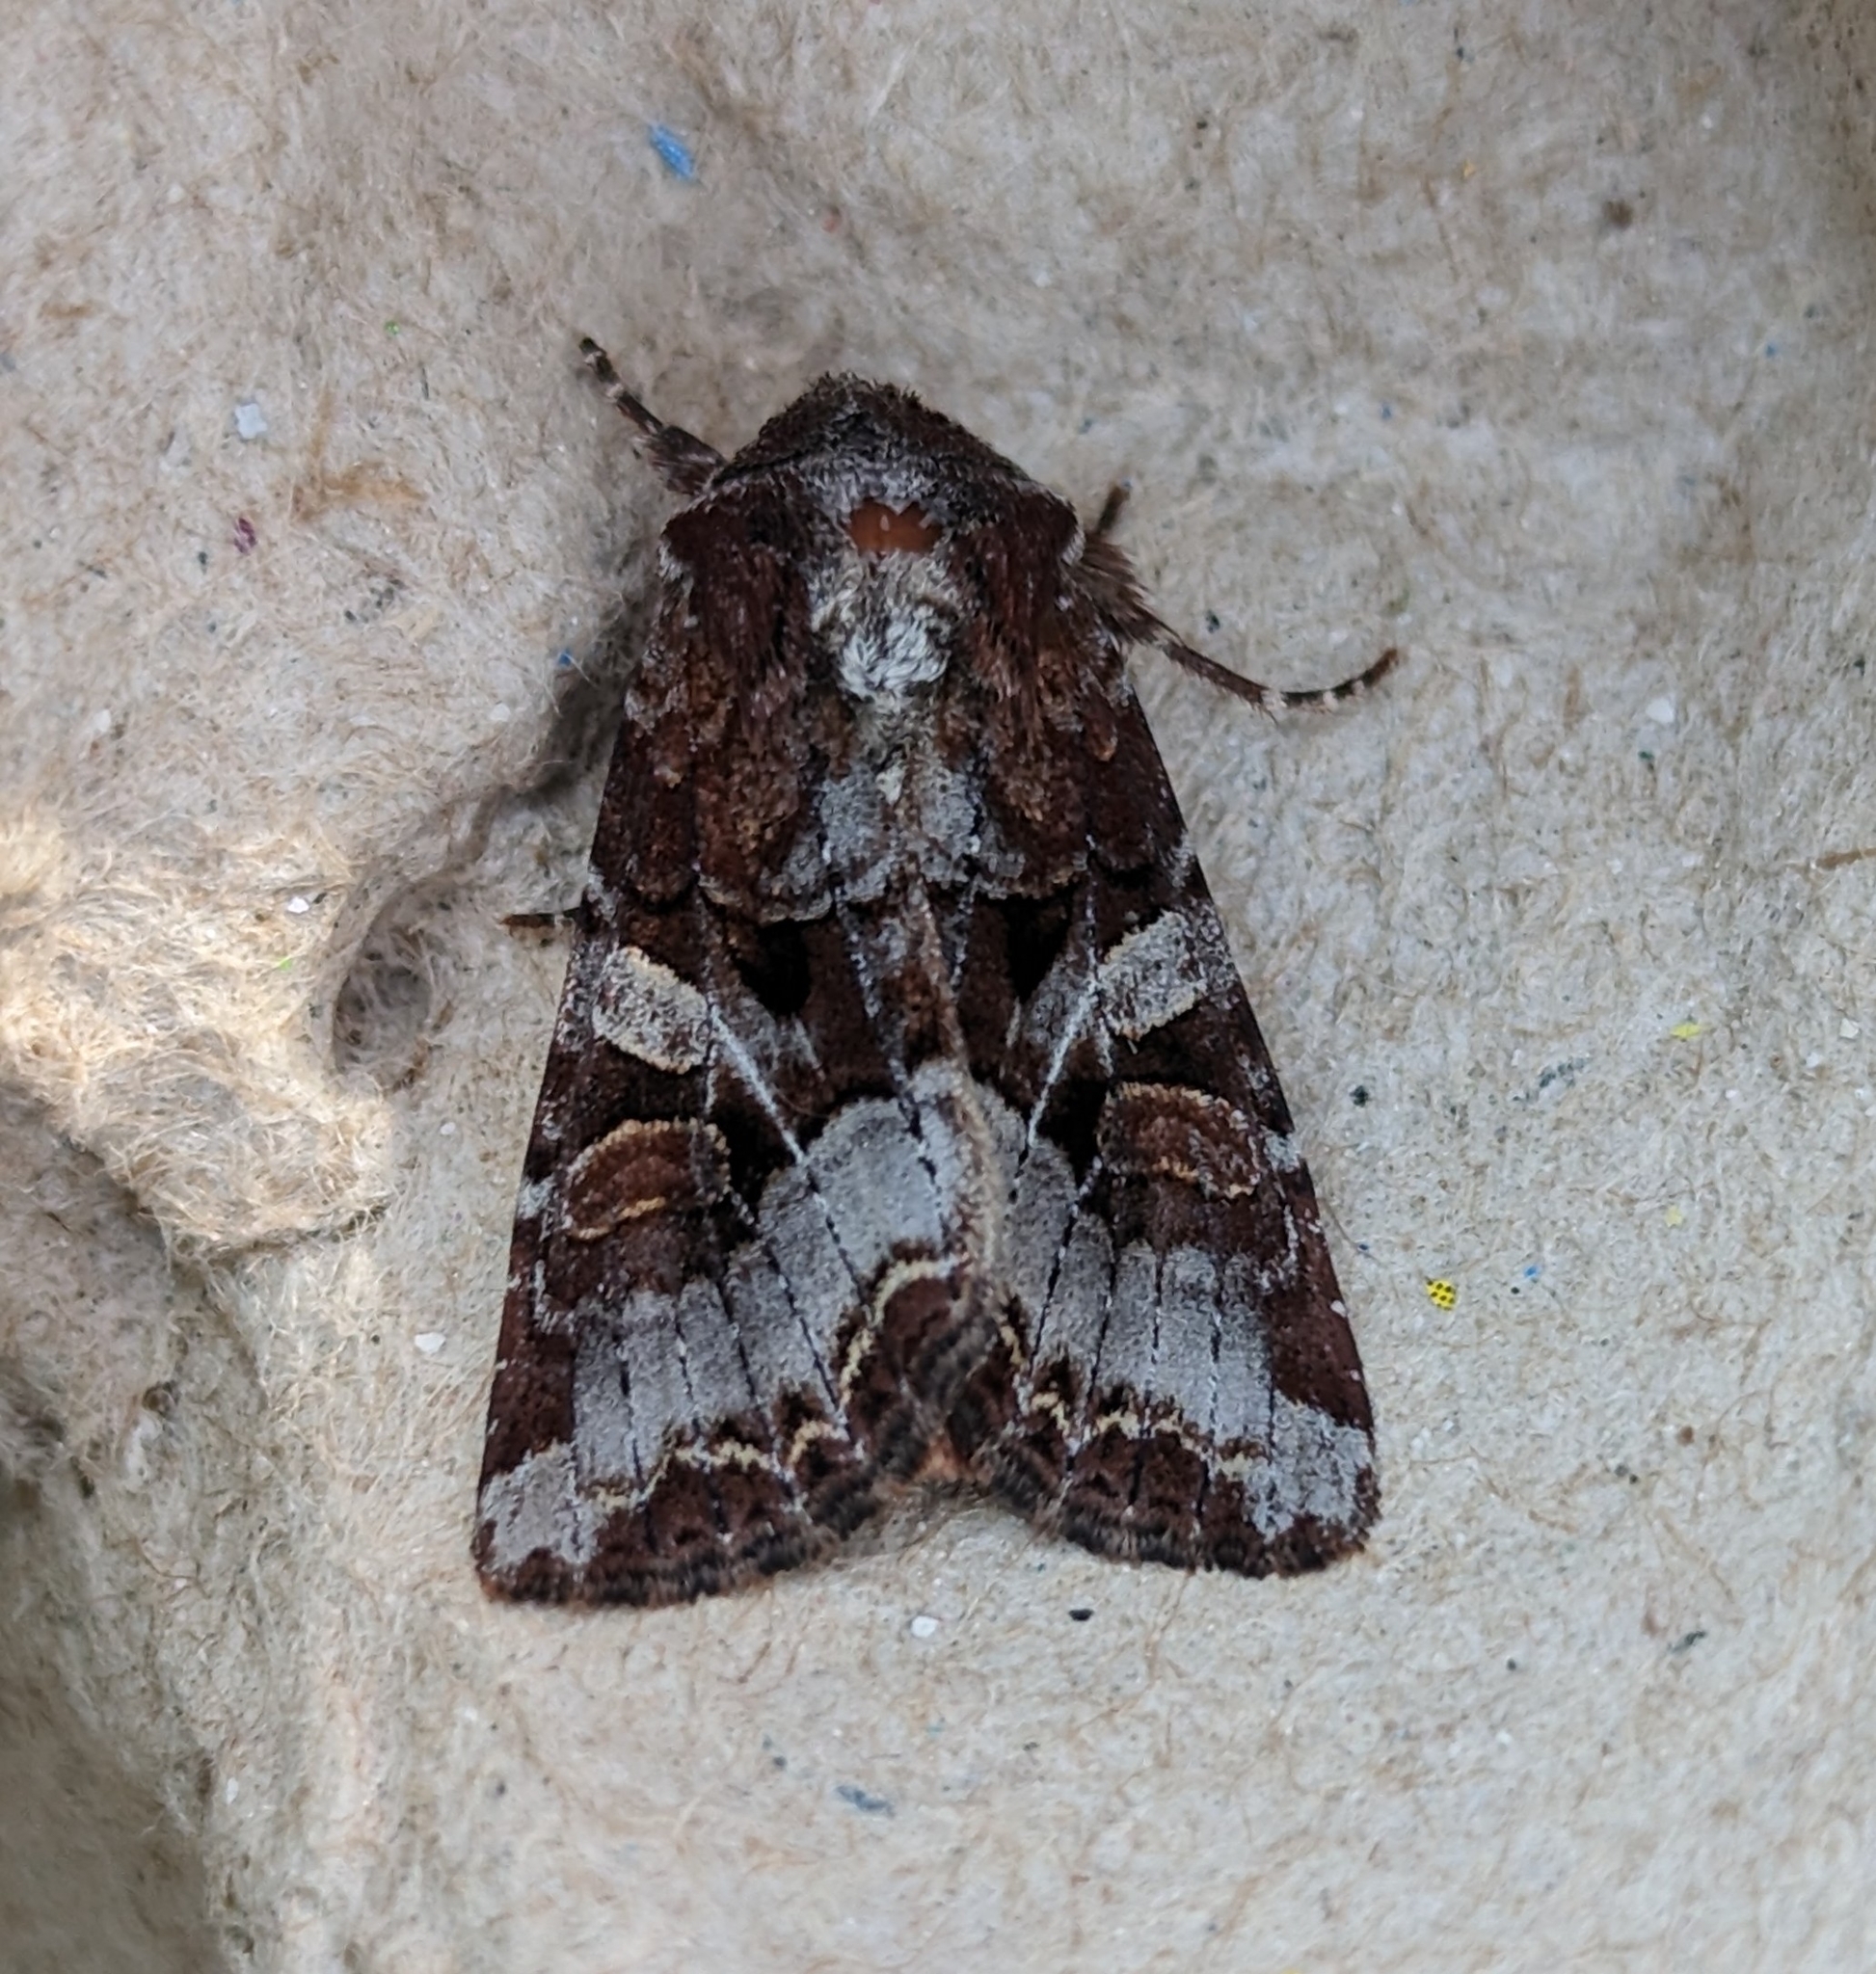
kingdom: Animalia
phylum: Arthropoda
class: Insecta
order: Lepidoptera
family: Noctuidae
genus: Trichordestra
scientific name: Trichordestra tacoma
